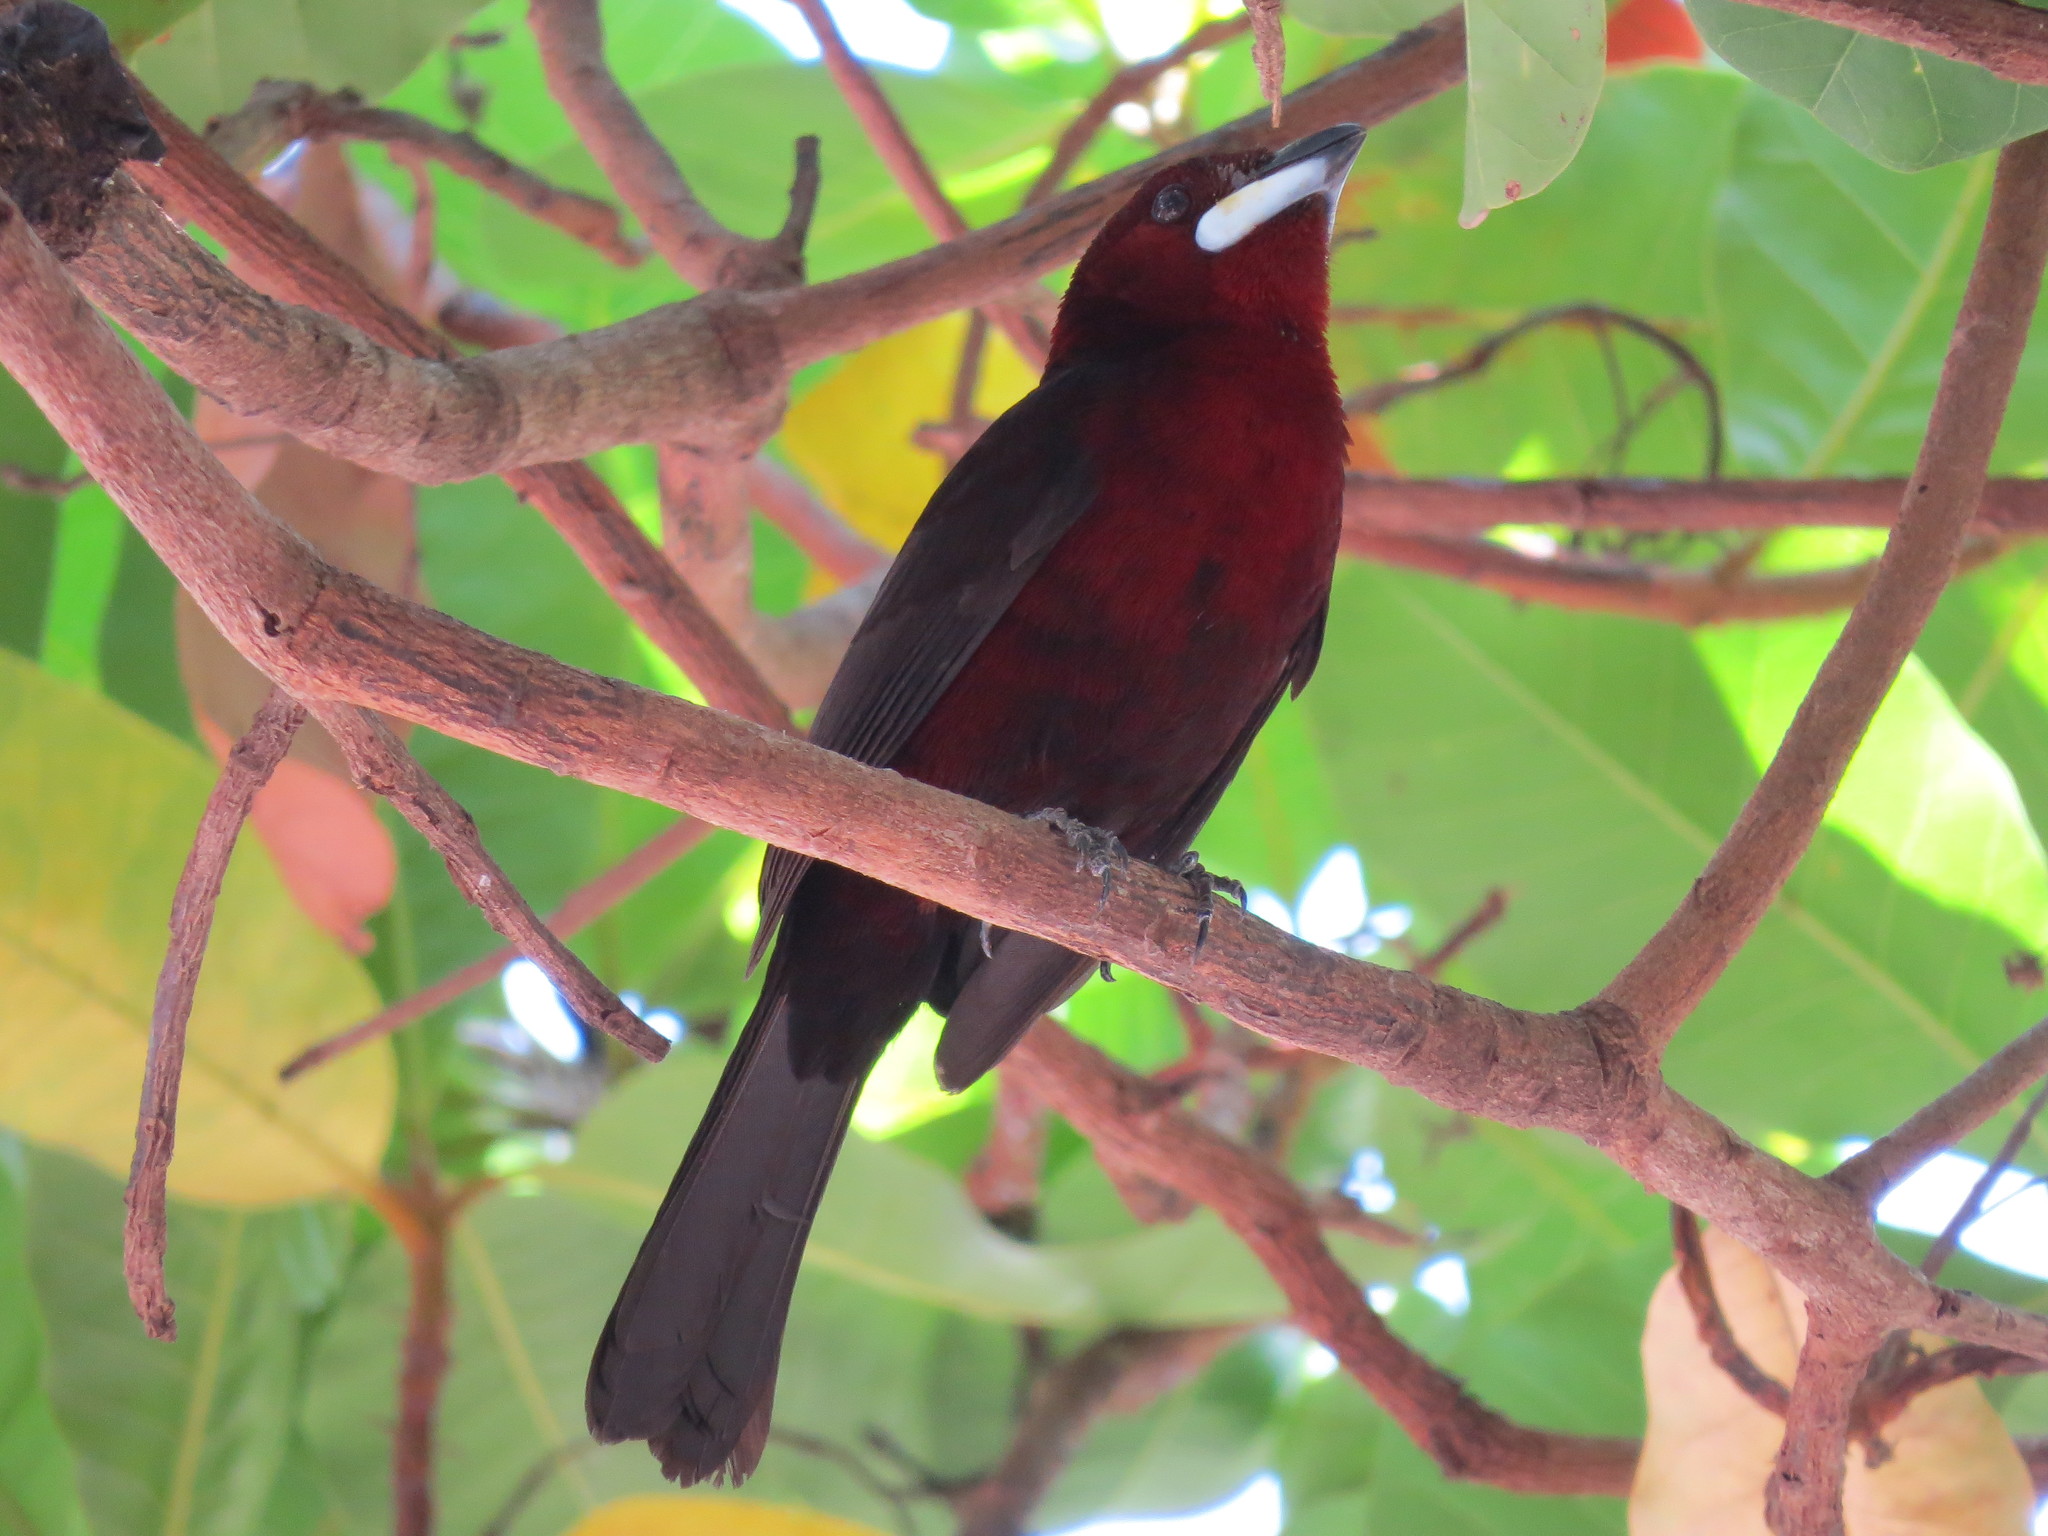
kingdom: Animalia
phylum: Chordata
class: Aves
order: Passeriformes
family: Thraupidae
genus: Ramphocelus
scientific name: Ramphocelus carbo
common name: Silver-beaked tanager
